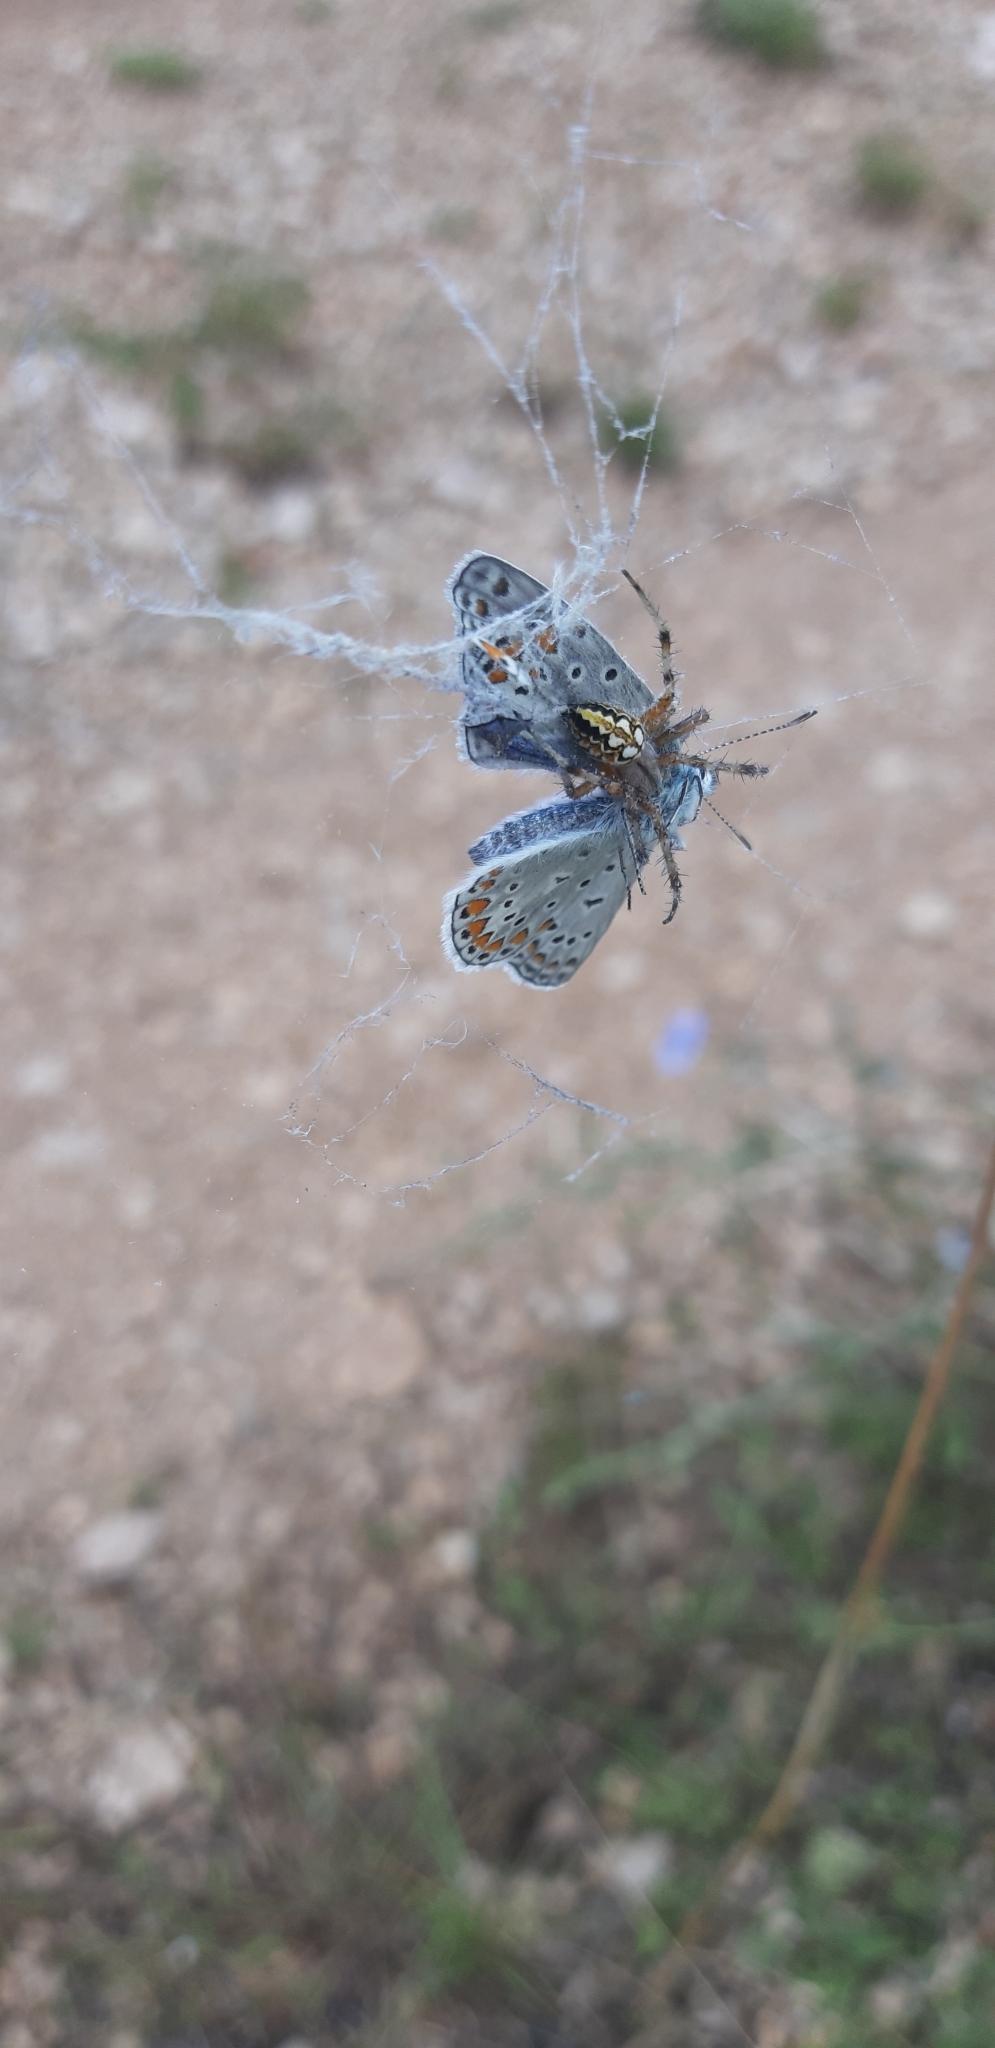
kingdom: Animalia
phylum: Arthropoda
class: Arachnida
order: Araneae
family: Araneidae
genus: Neoscona
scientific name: Neoscona adianta
